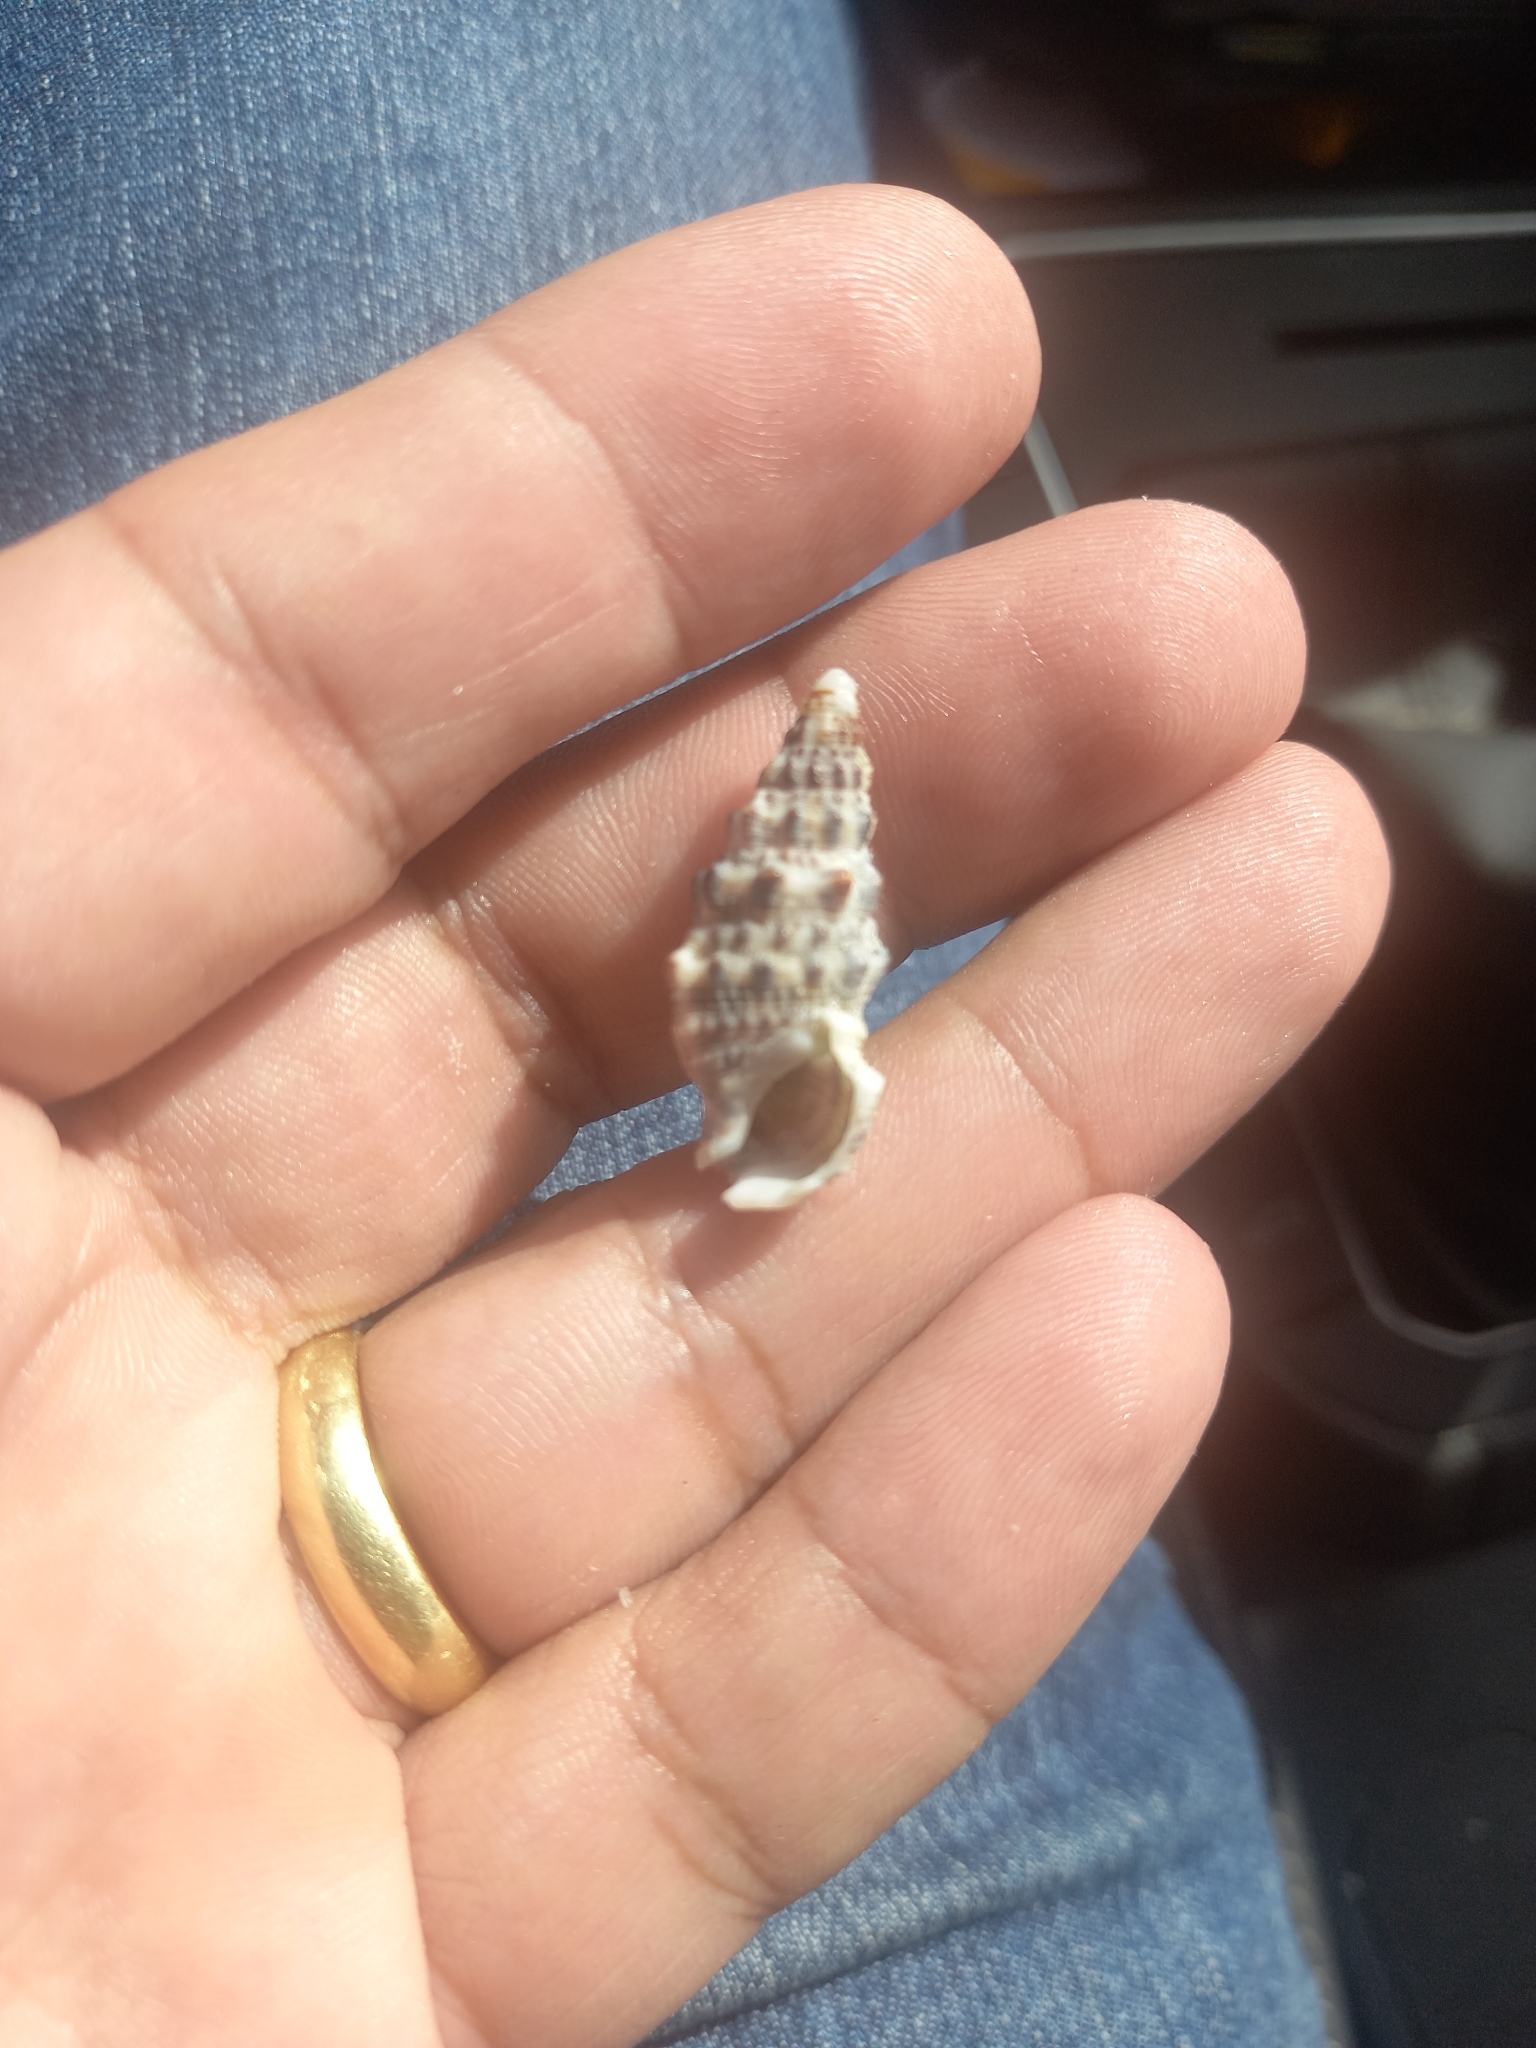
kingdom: Animalia
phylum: Mollusca
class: Gastropoda
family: Cerithiidae
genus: Cerithium
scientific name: Cerithium atratum
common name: Dark cerith
